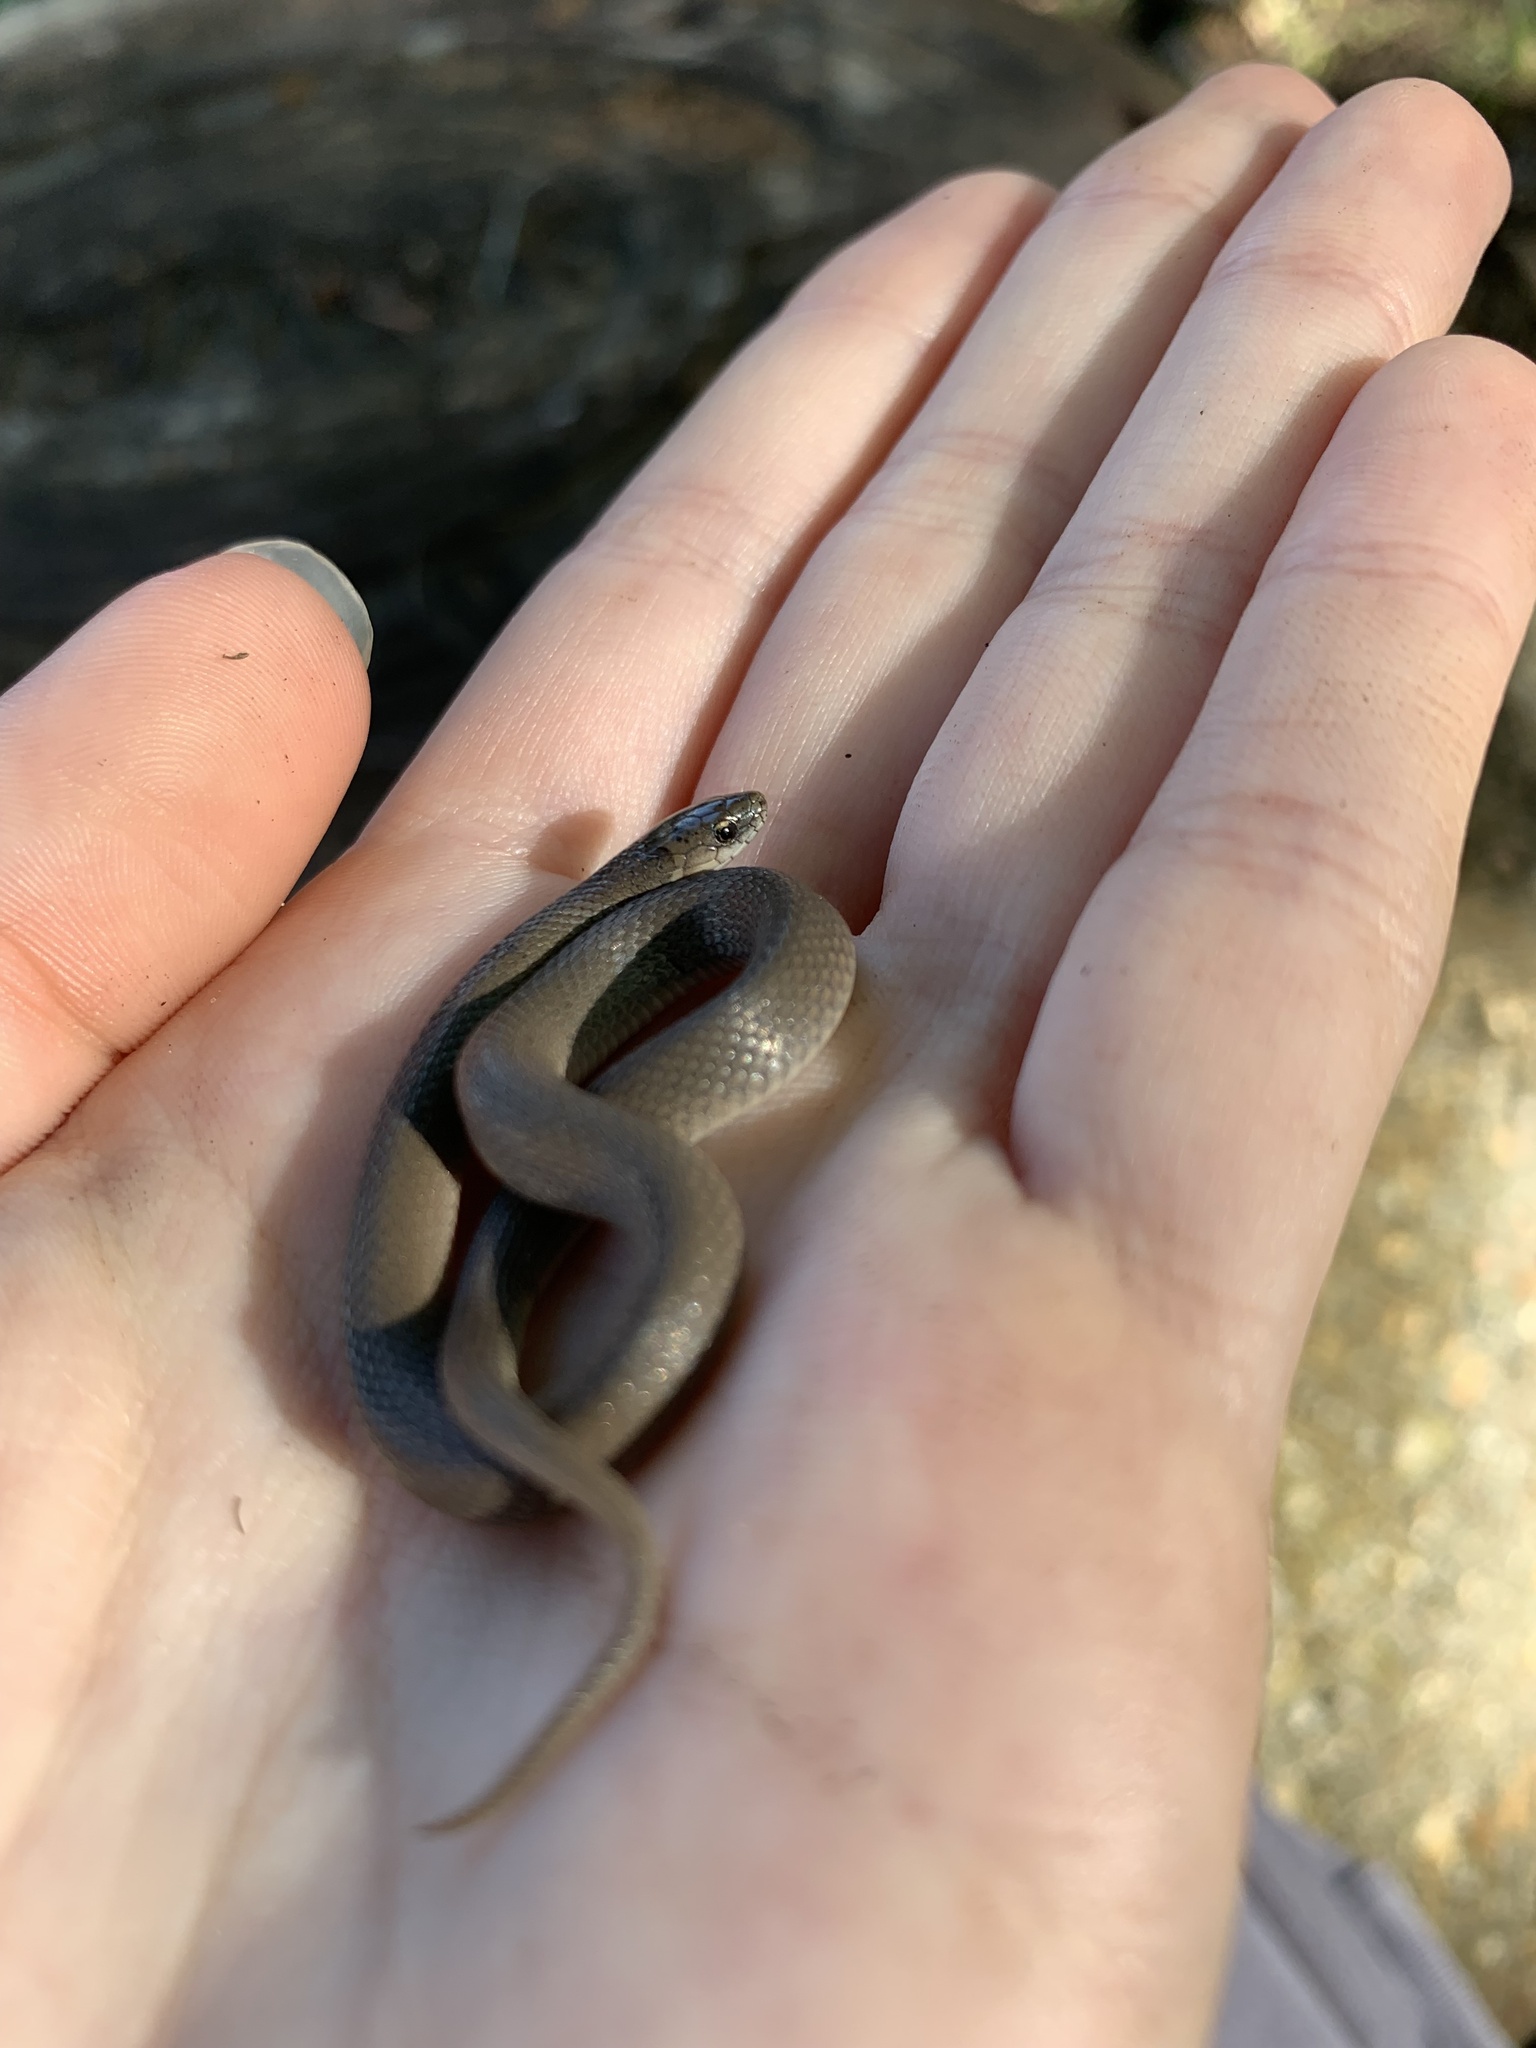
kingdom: Animalia
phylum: Chordata
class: Squamata
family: Colubridae
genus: Haldea
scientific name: Haldea striatula
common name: Rough earth snake
